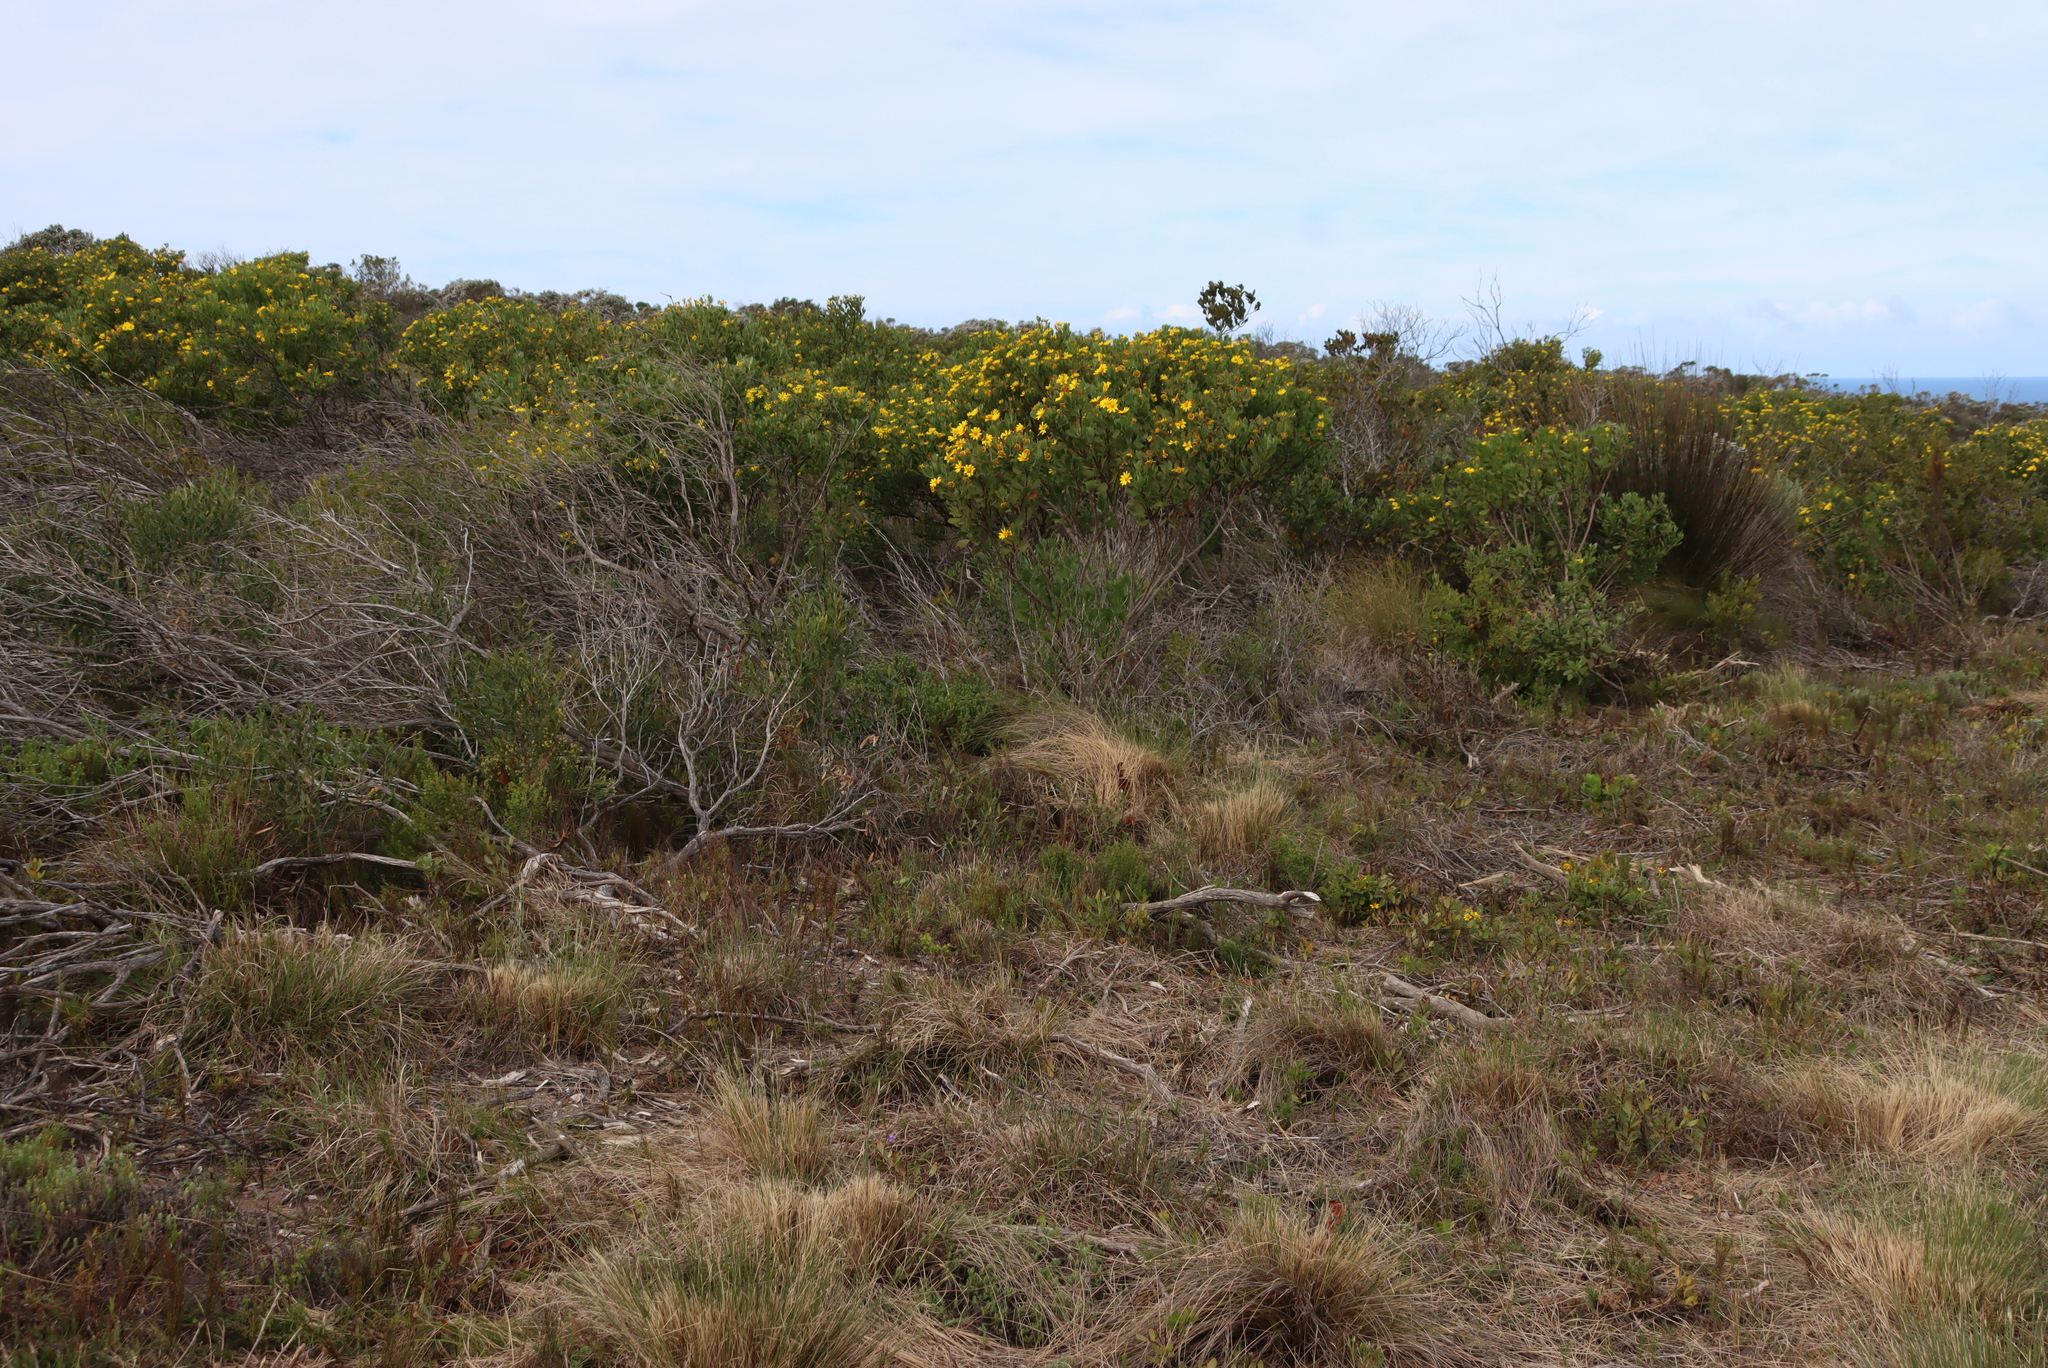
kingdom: Plantae
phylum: Tracheophyta
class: Magnoliopsida
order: Asterales
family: Asteraceae
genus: Osteospermum
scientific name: Osteospermum moniliferum
